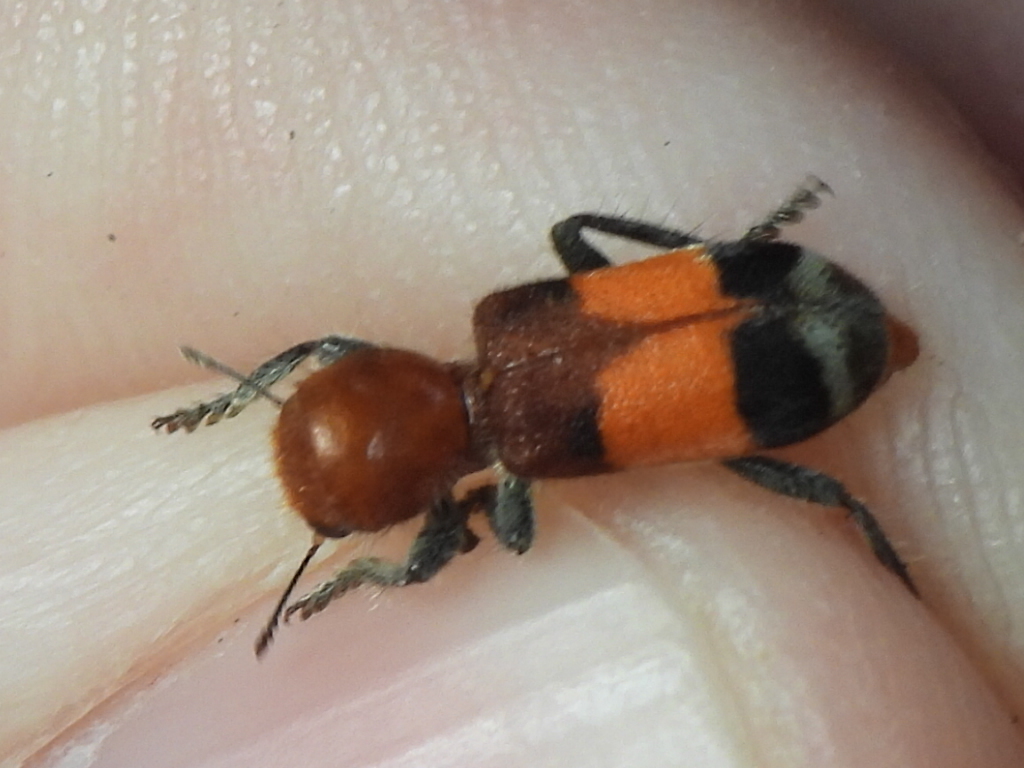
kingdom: Animalia
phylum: Arthropoda
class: Insecta
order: Coleoptera
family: Cleridae
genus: Enoclerus
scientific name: Enoclerus ichneumoneus
